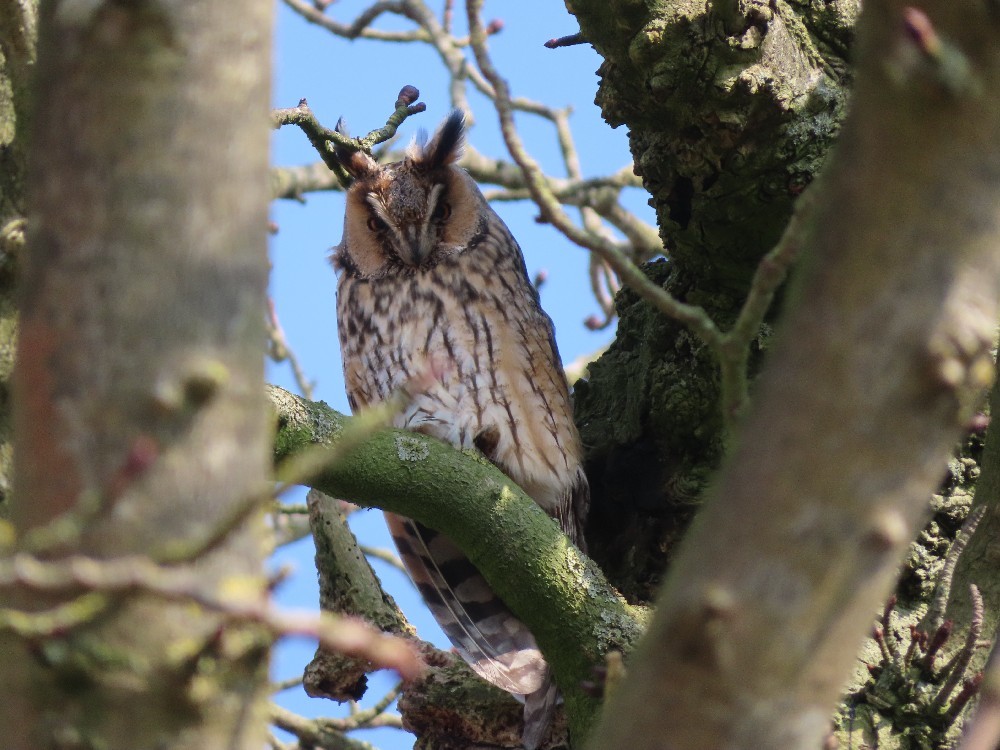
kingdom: Animalia
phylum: Chordata
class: Aves
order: Strigiformes
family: Strigidae
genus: Asio
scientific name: Asio otus
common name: Long-eared owl
